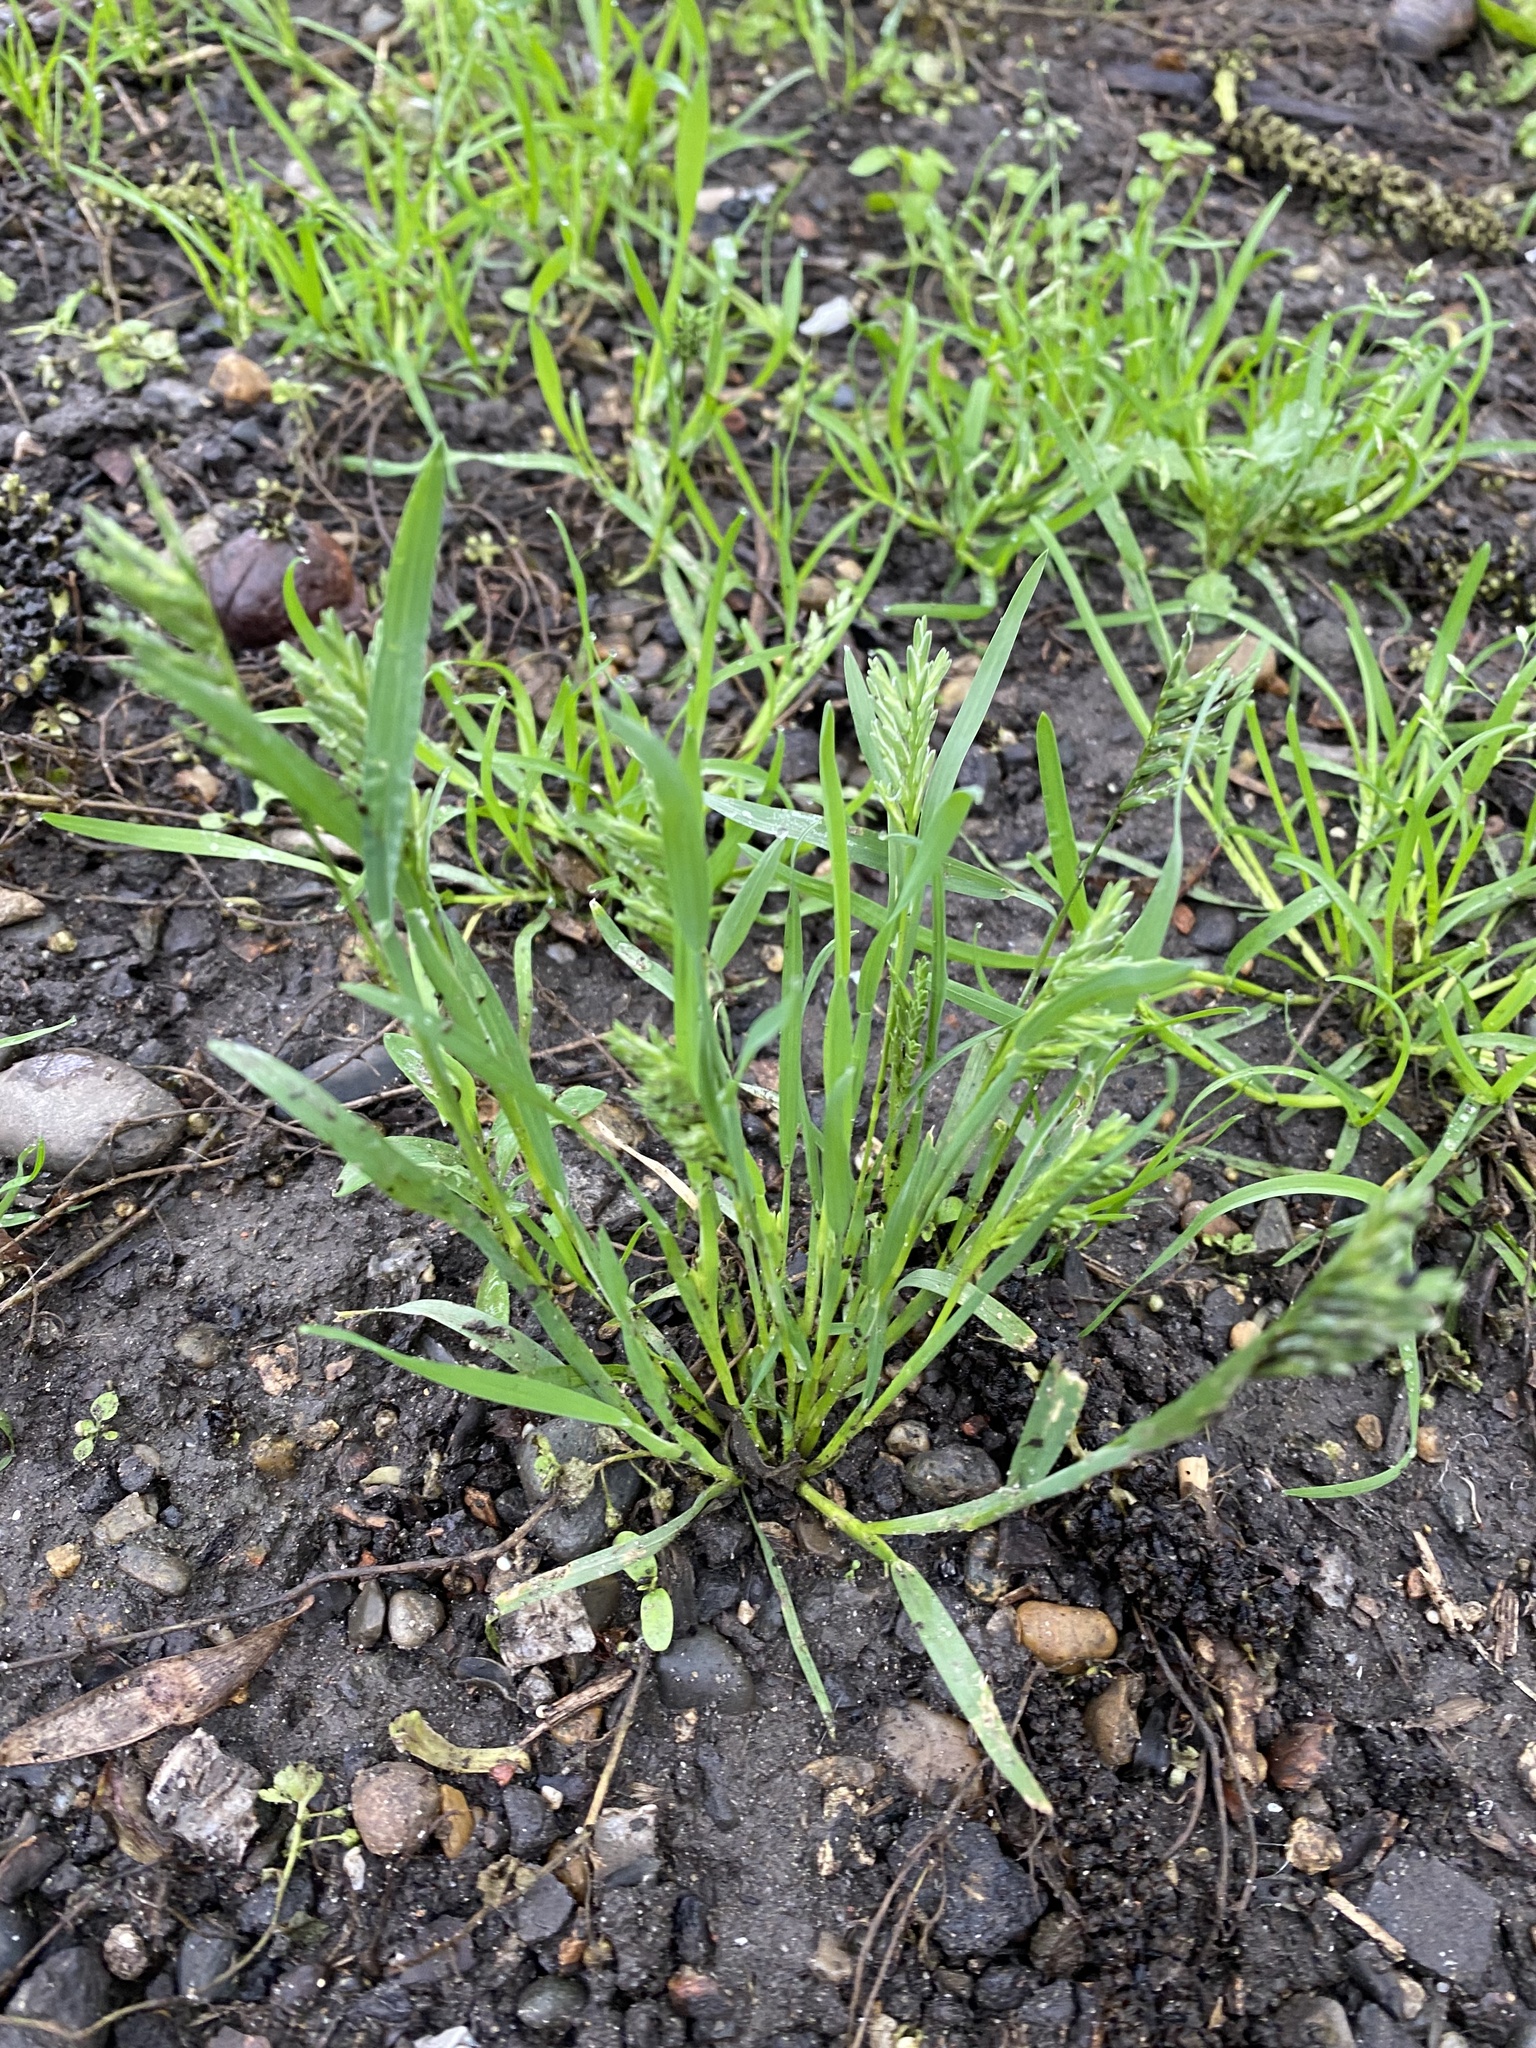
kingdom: Plantae
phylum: Tracheophyta
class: Liliopsida
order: Poales
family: Poaceae
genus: Sclerochloa
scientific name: Sclerochloa dura
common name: Common hardgrass
